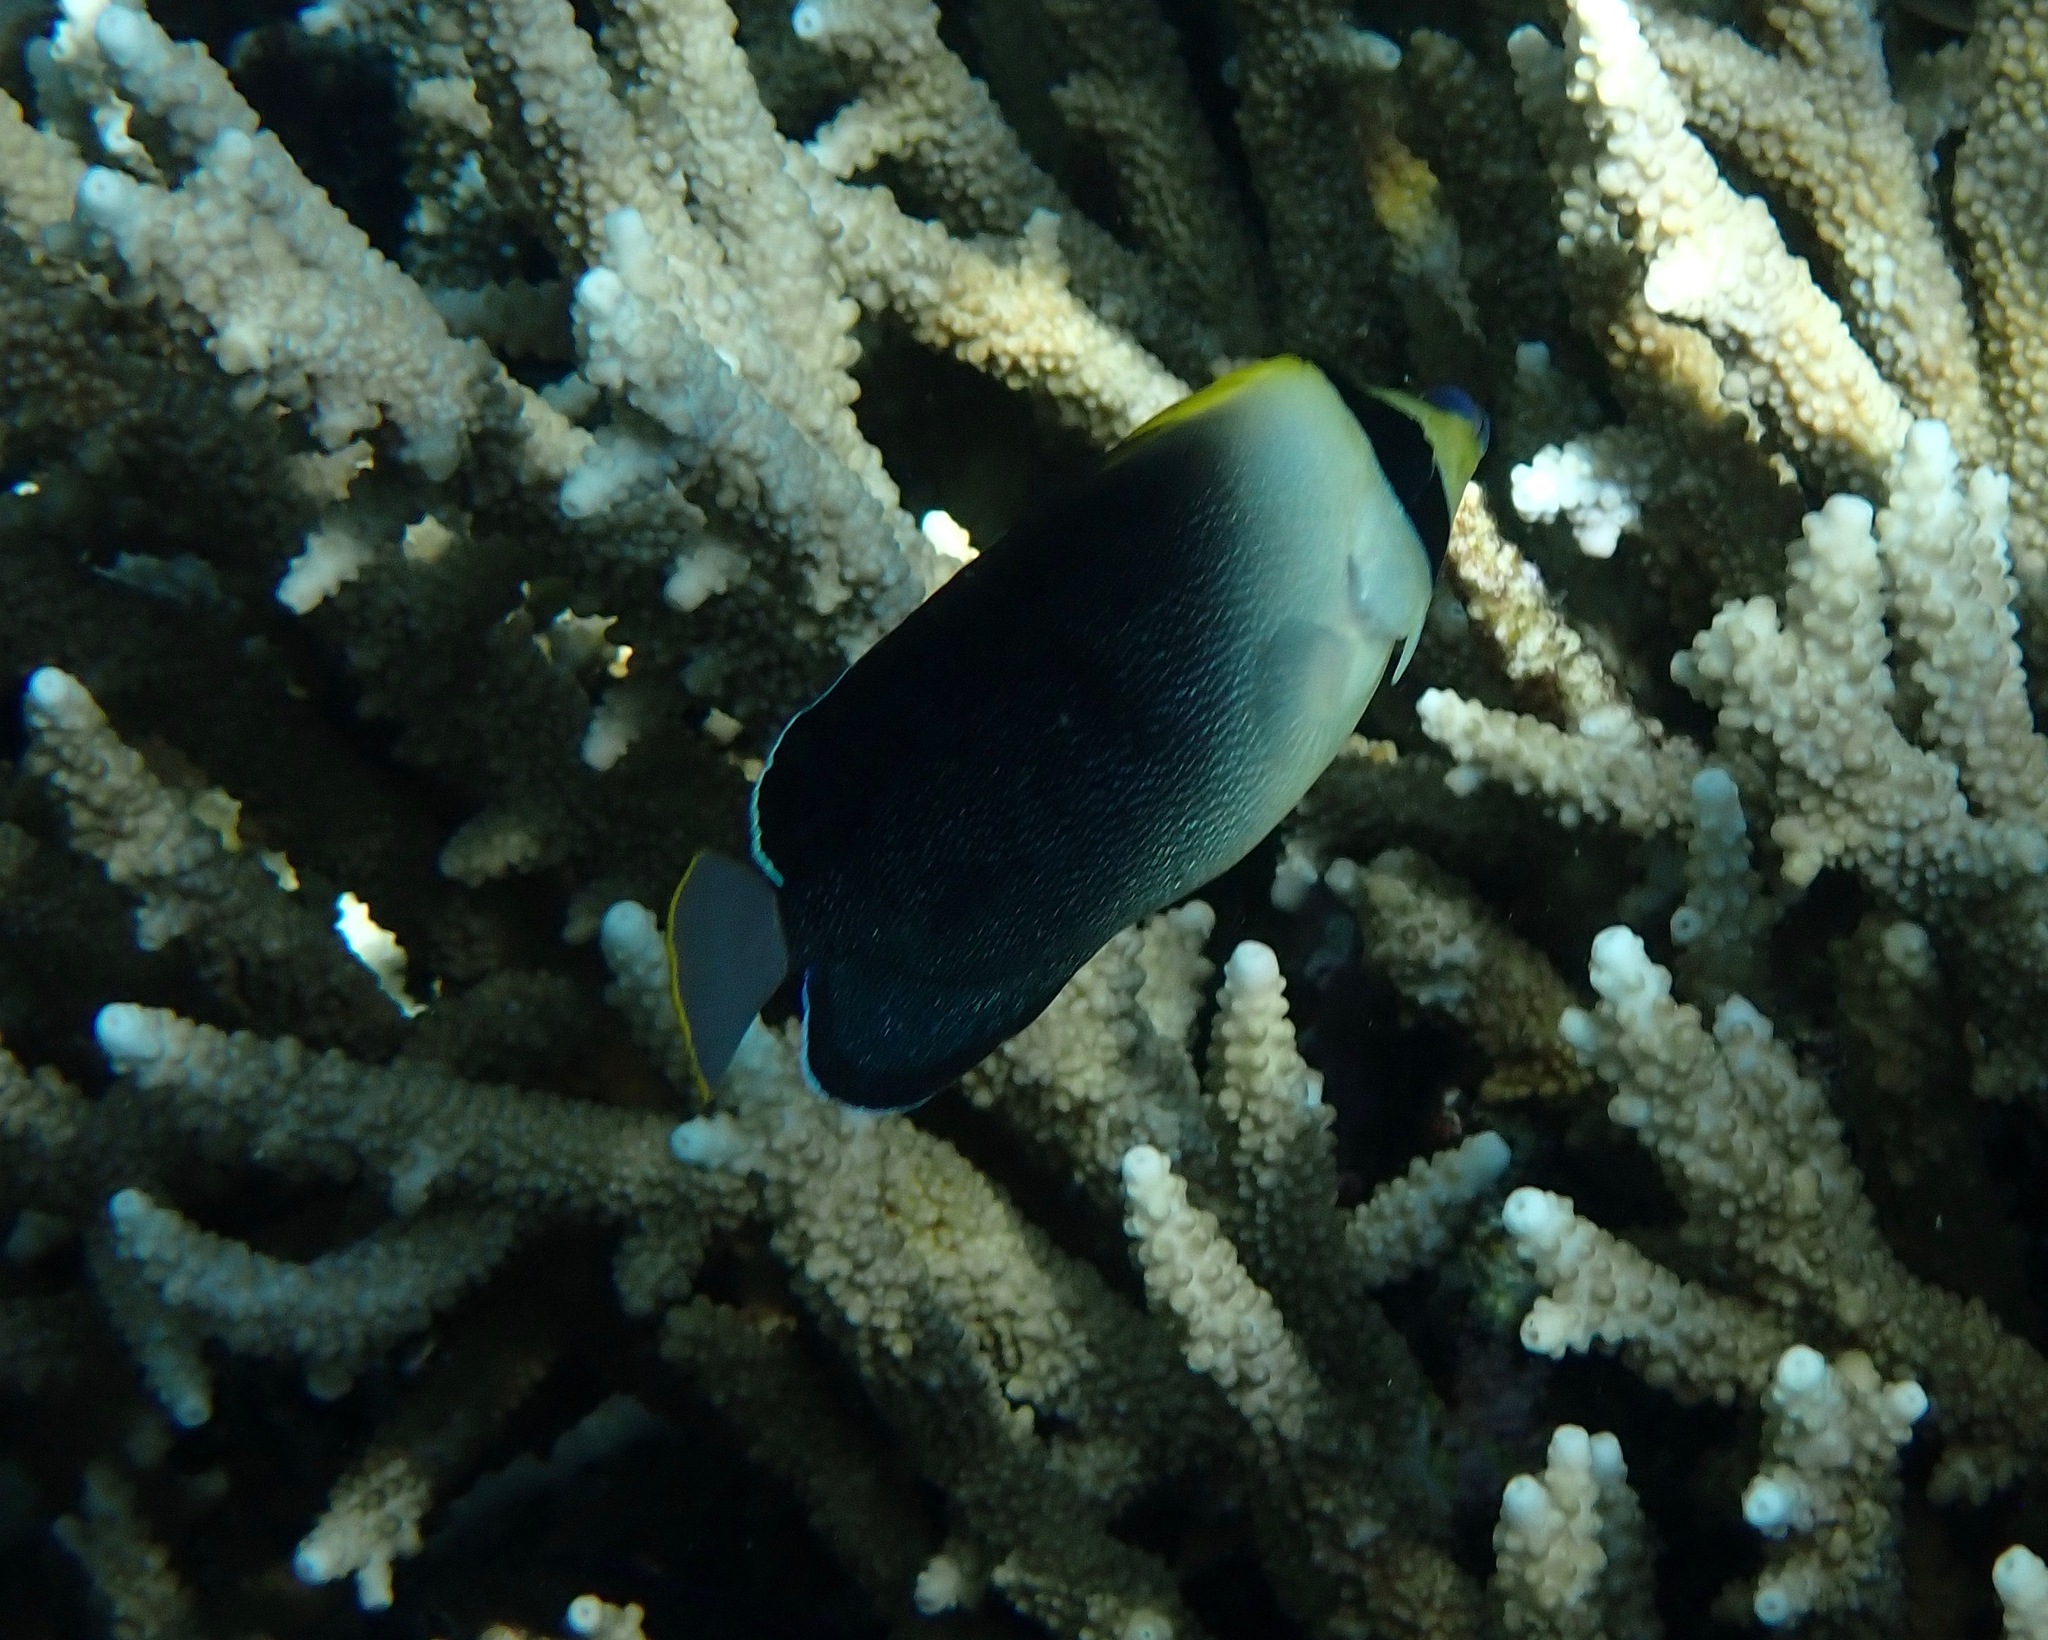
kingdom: Animalia
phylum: Chordata
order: Perciformes
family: Pomacanthidae
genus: Chaetodontoplus
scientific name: Chaetodontoplus poliourus
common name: Greytail angelfish
